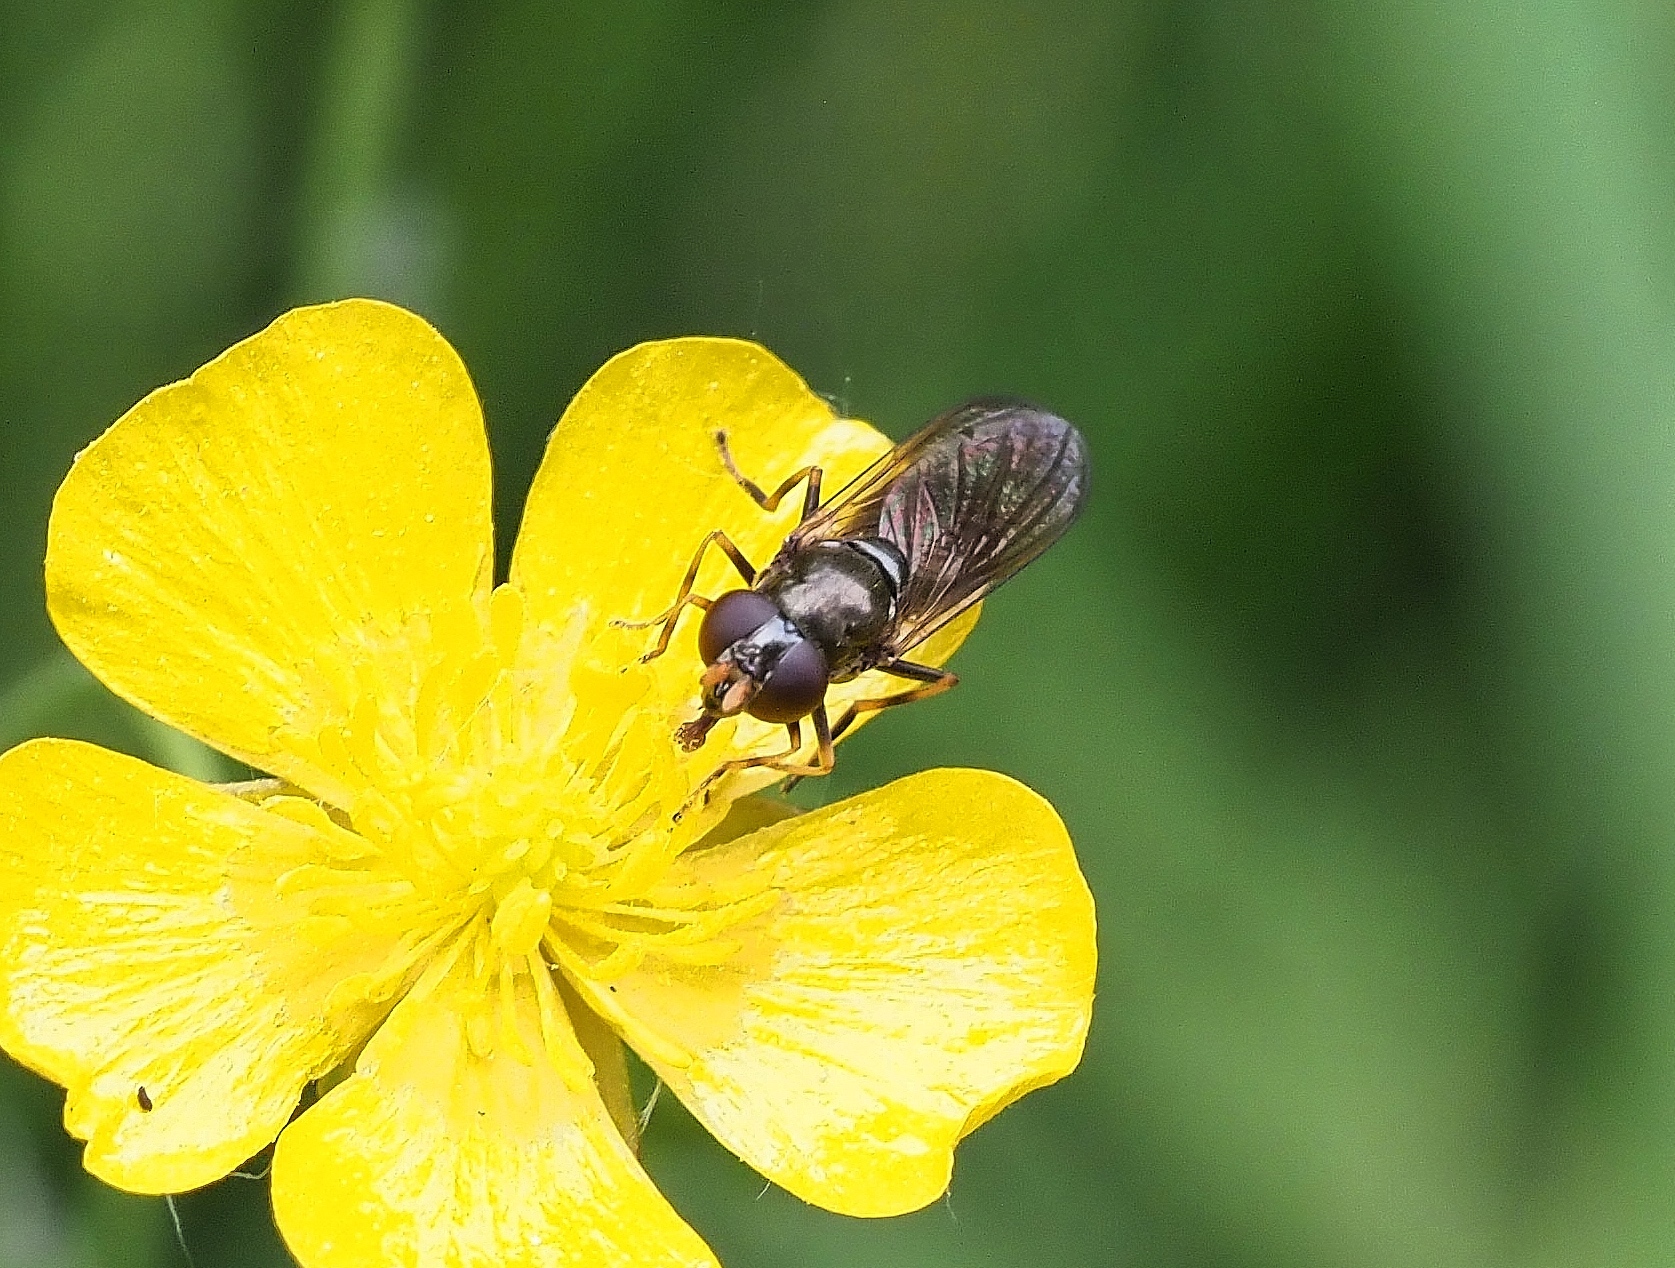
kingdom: Animalia
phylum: Arthropoda
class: Insecta
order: Diptera
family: Syrphidae
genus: Cheilosia
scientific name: Cheilosia pagana
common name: Hover fly
